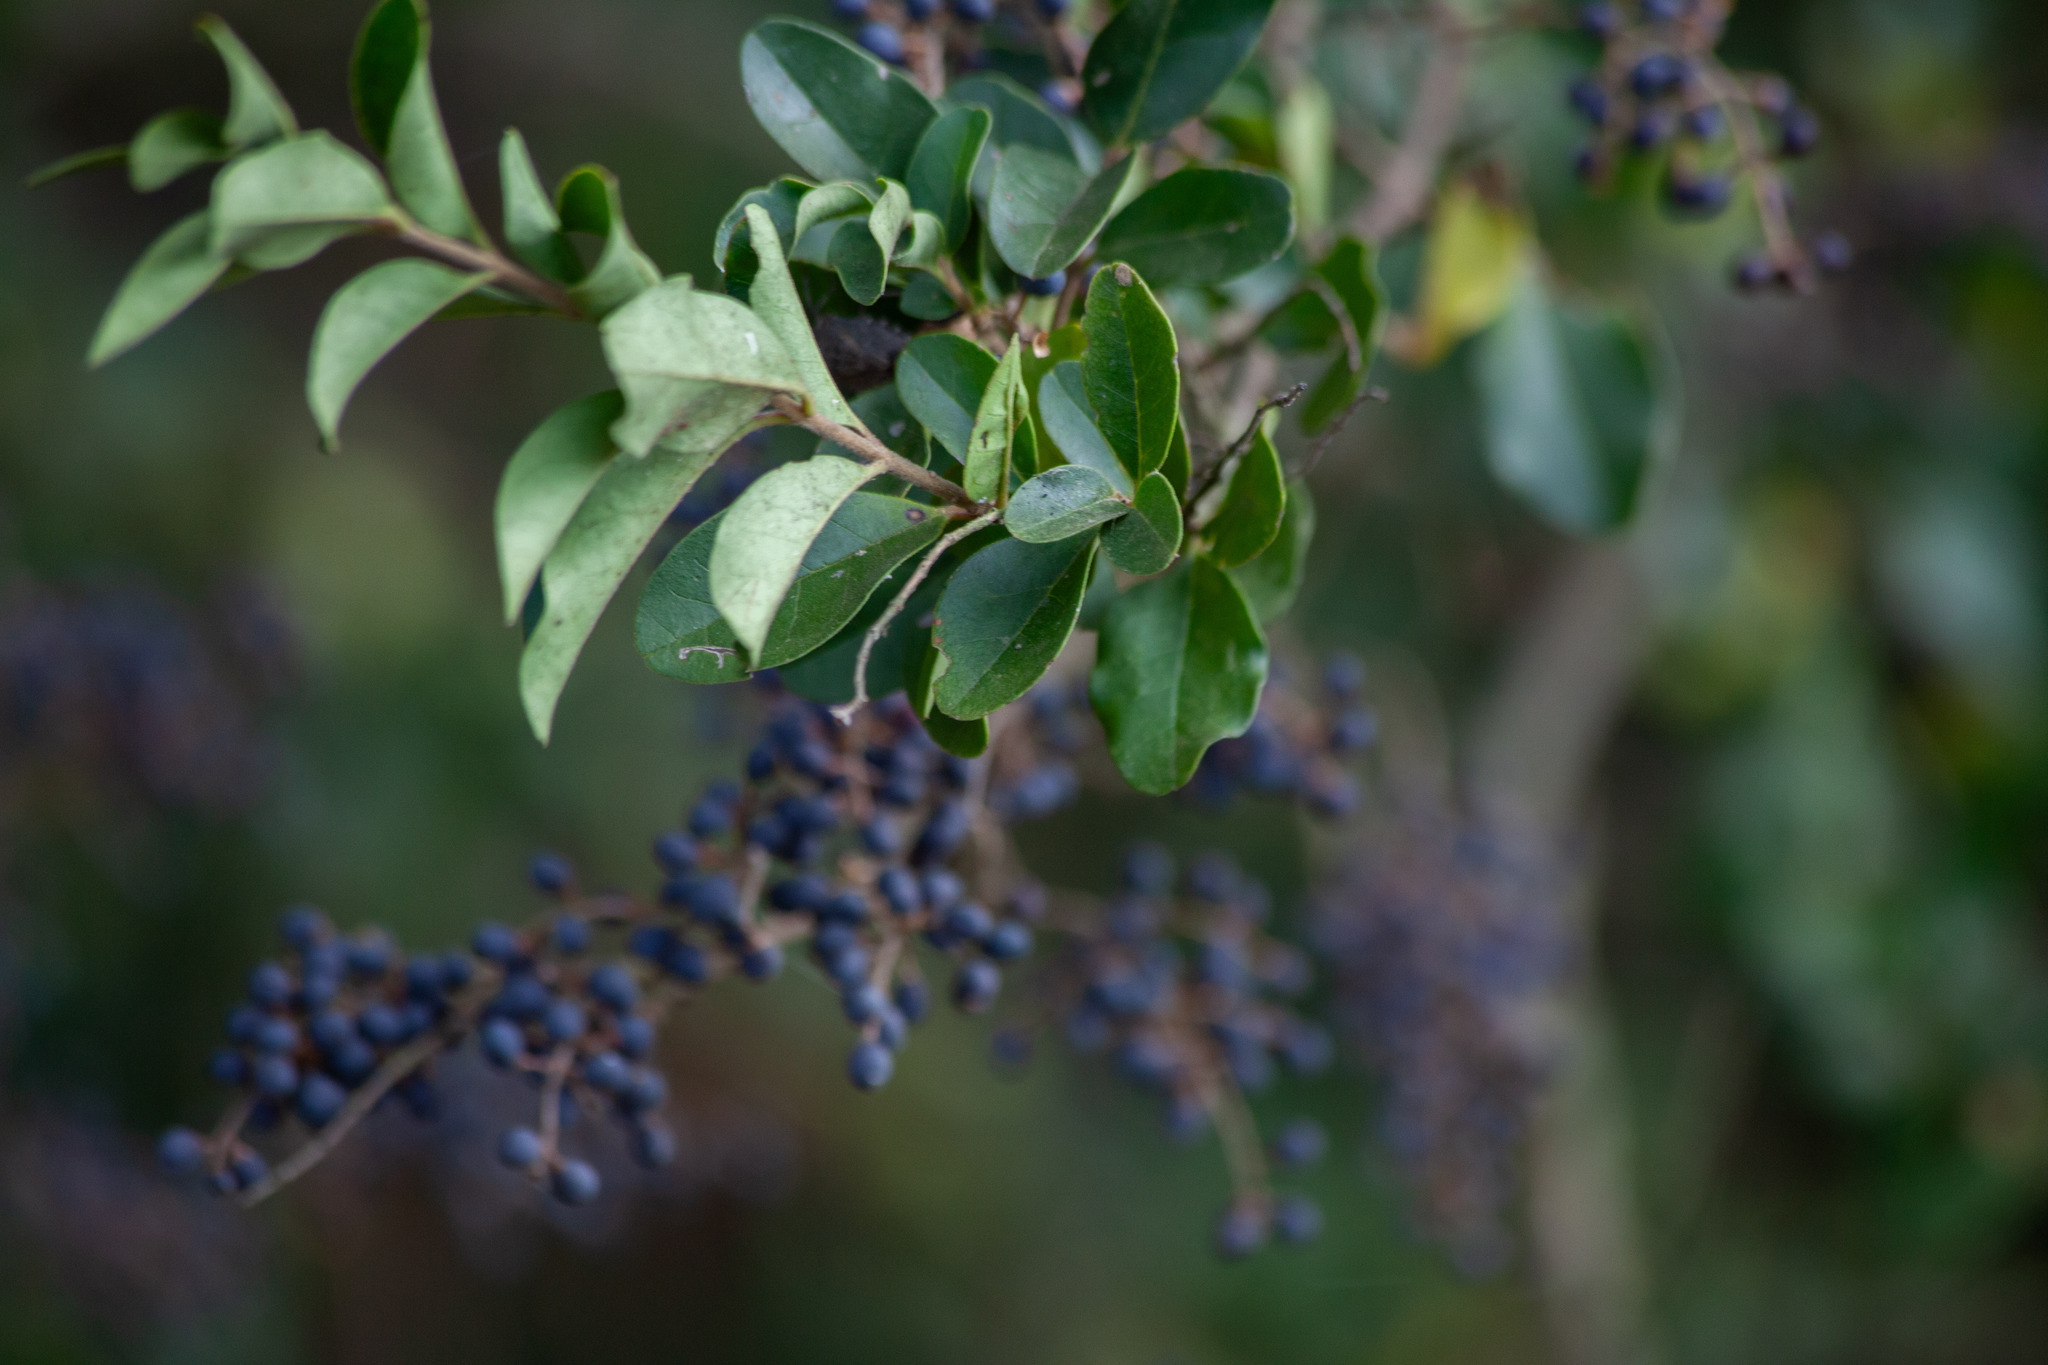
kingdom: Plantae
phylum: Tracheophyta
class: Magnoliopsida
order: Lamiales
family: Oleaceae
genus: Ligustrum
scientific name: Ligustrum sinense
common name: Chinese privet
